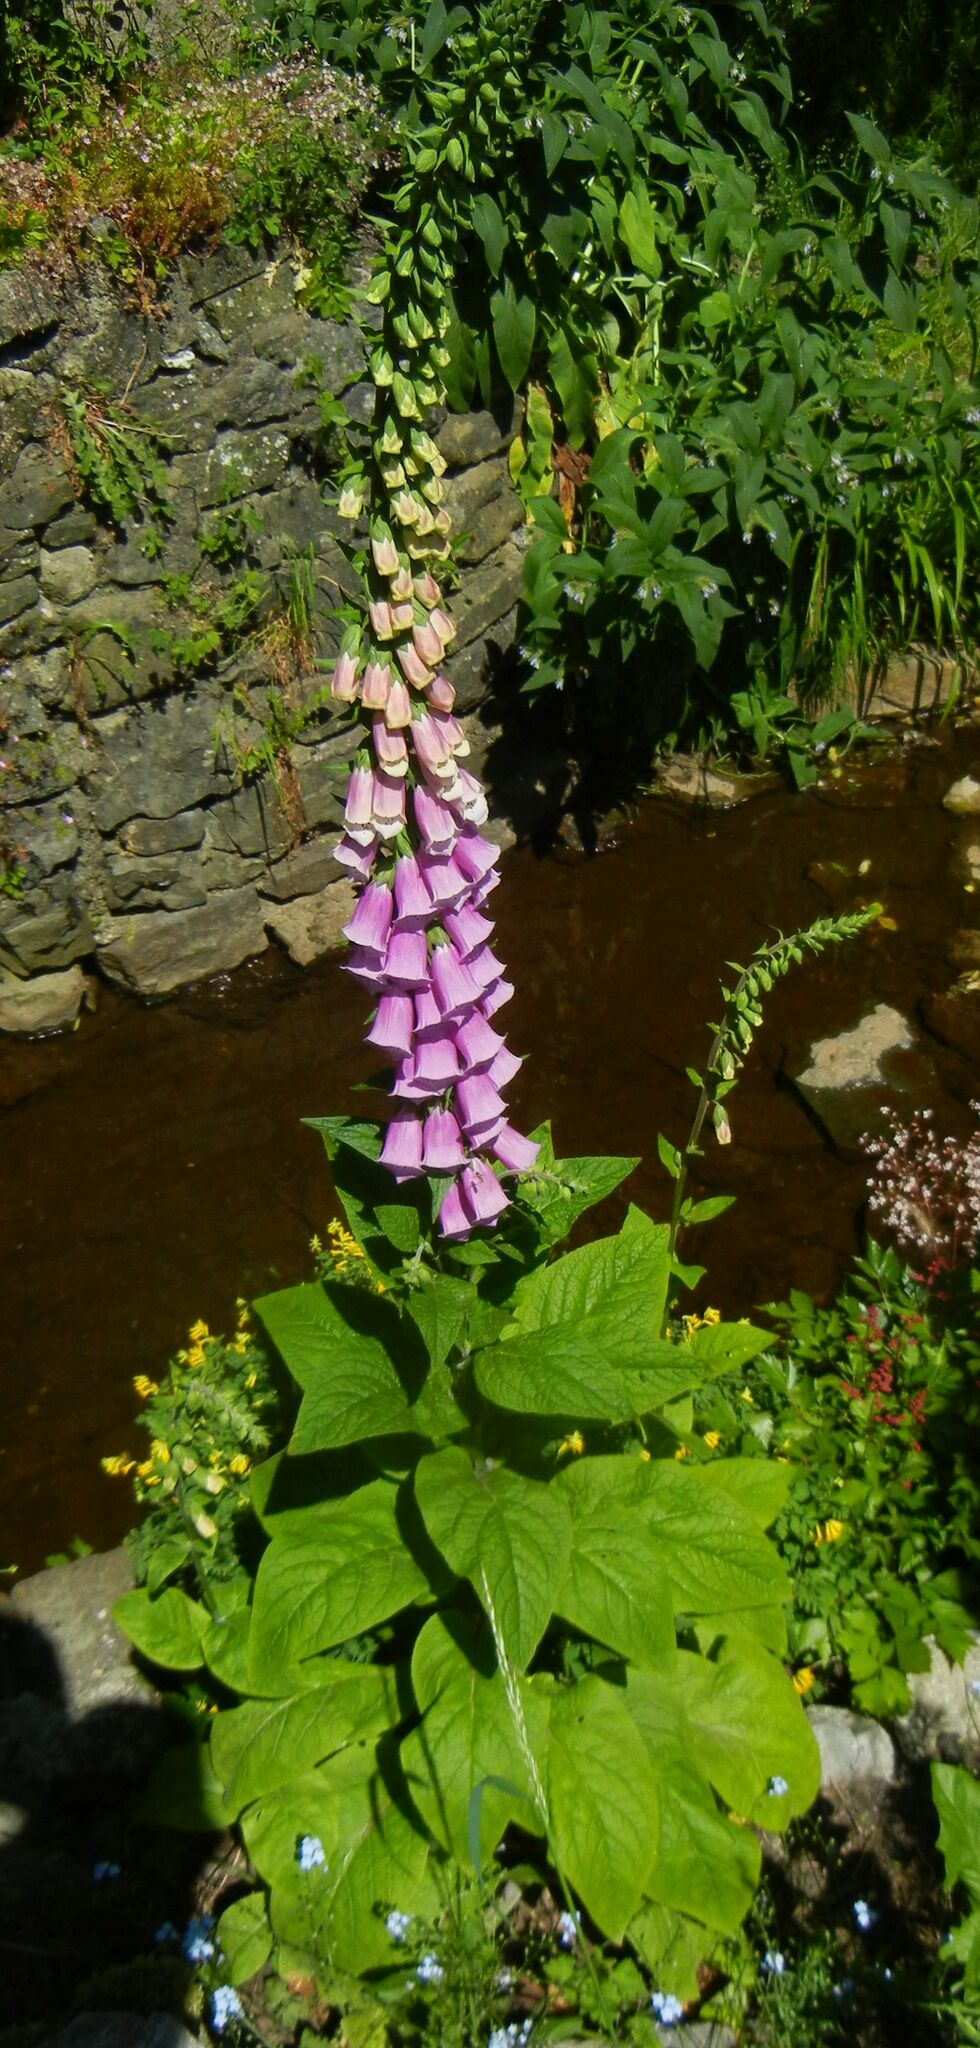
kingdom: Plantae
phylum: Tracheophyta
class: Magnoliopsida
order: Lamiales
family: Plantaginaceae
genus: Digitalis
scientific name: Digitalis purpurea
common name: Foxglove
